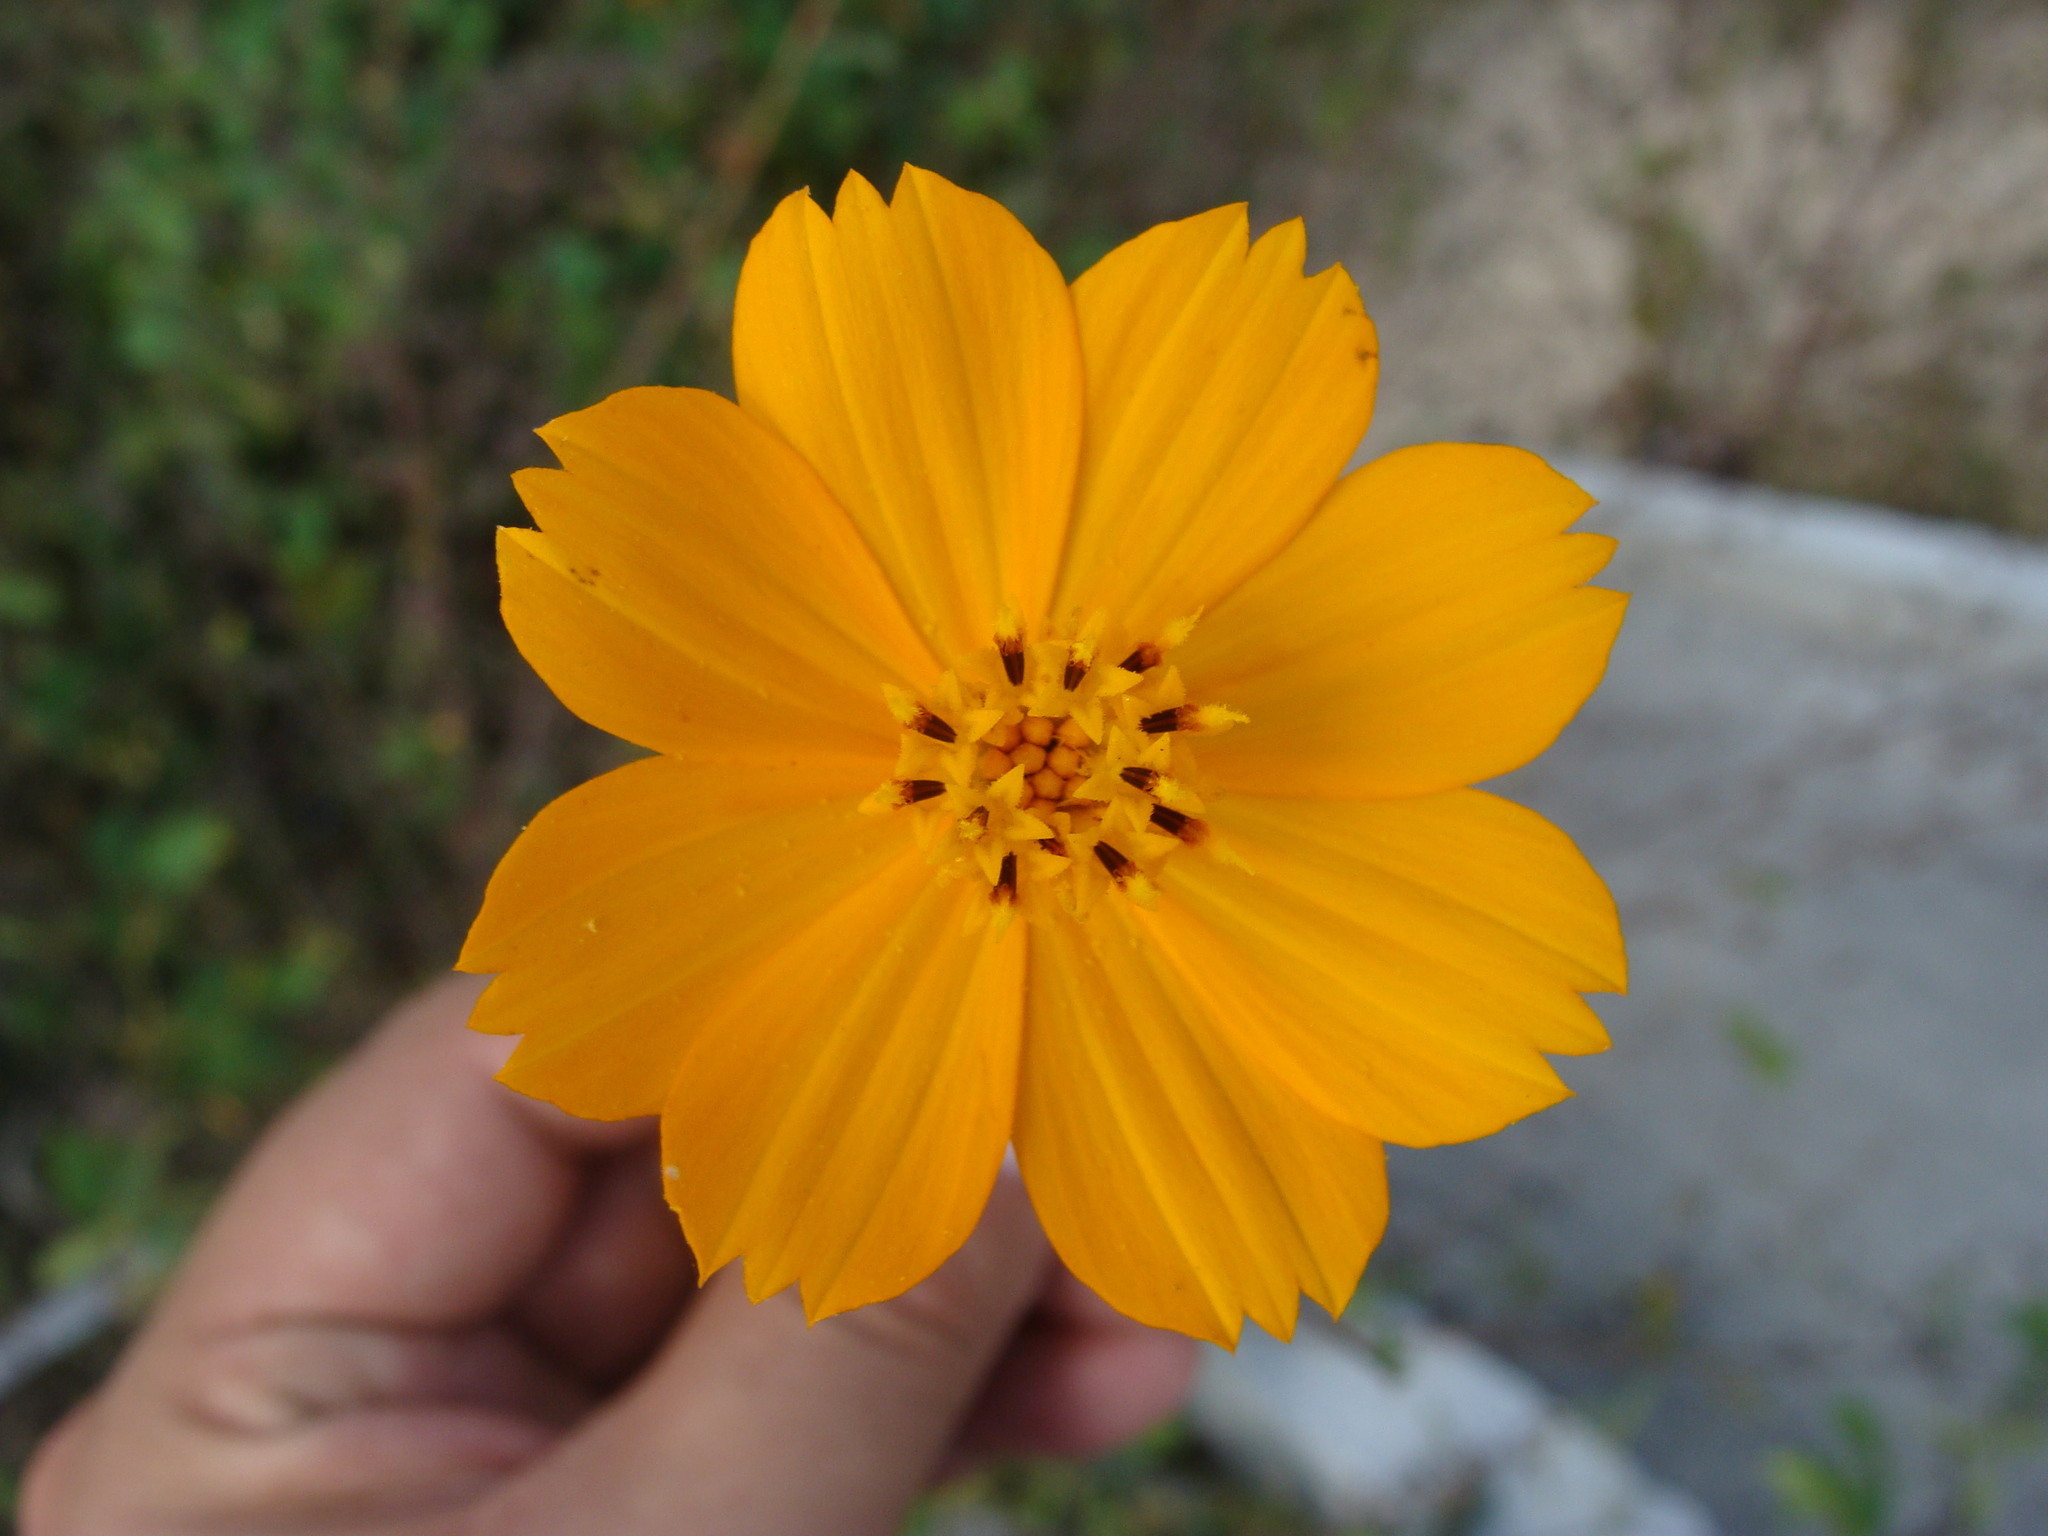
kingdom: Plantae
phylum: Tracheophyta
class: Magnoliopsida
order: Asterales
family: Asteraceae
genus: Cosmos
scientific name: Cosmos sulphureus
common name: Sulphur cosmos
